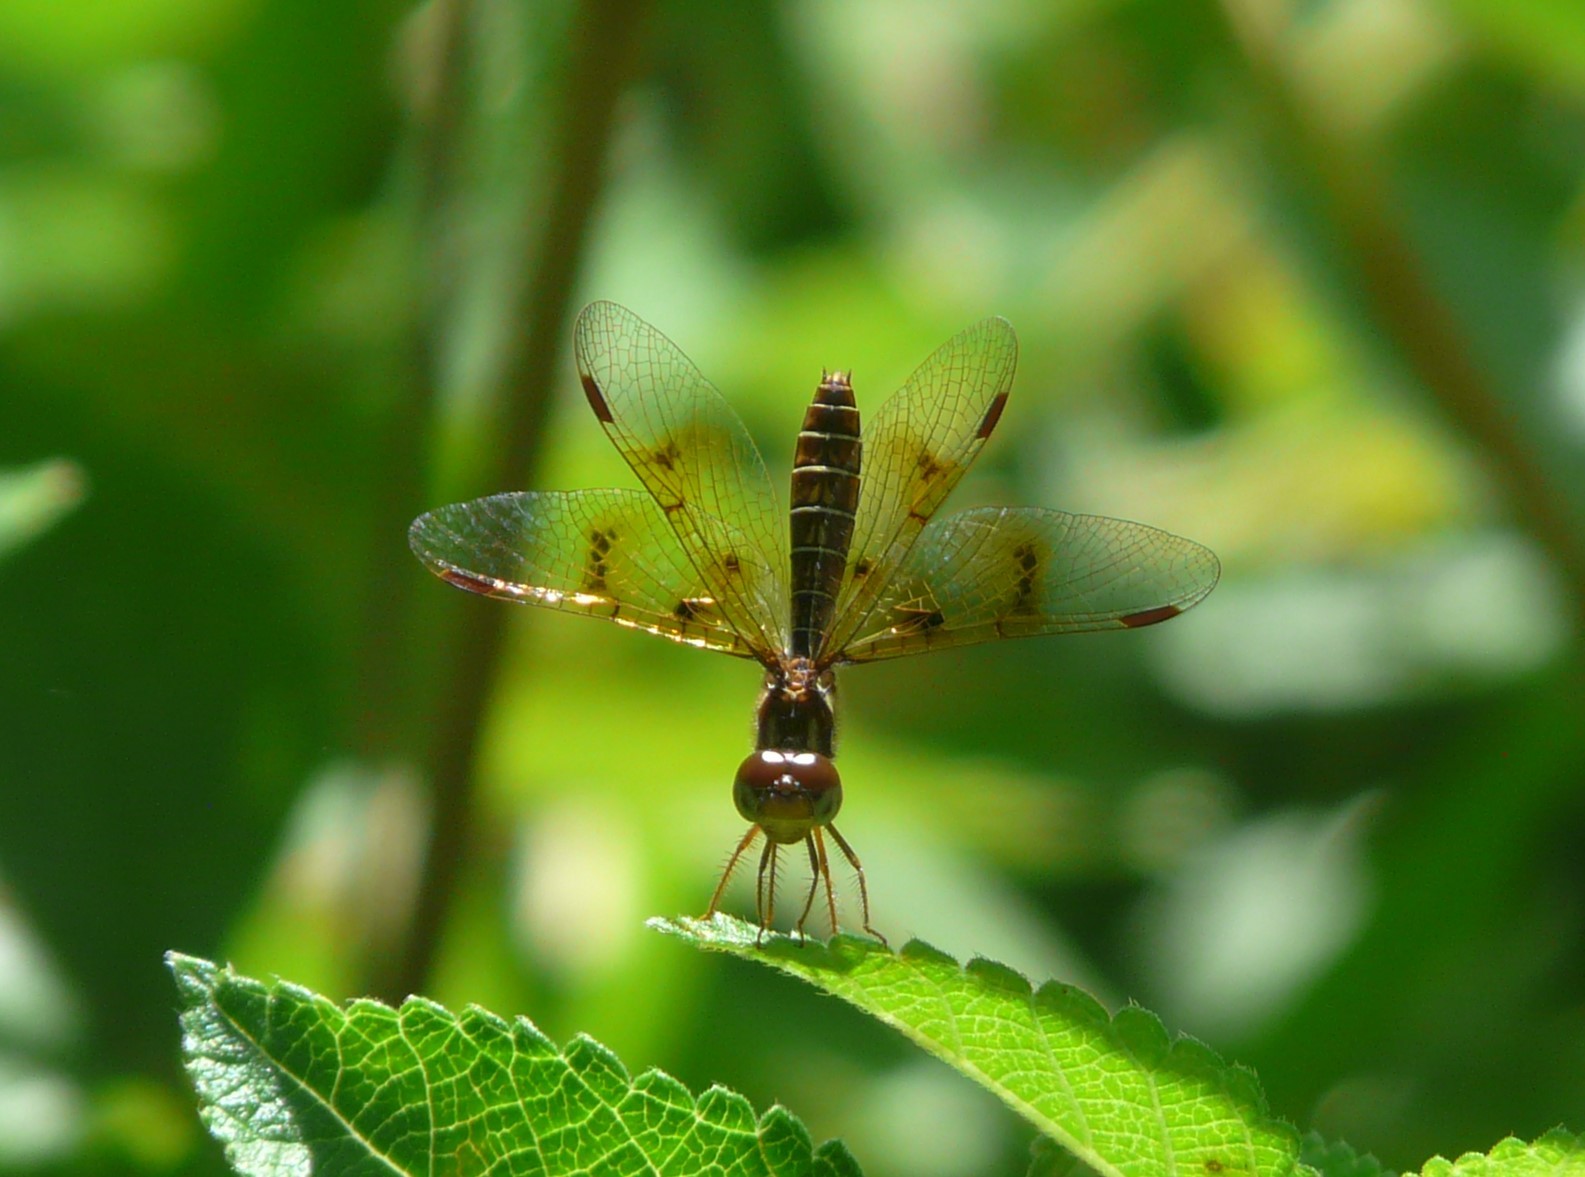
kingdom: Animalia
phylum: Arthropoda
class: Insecta
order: Odonata
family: Libellulidae
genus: Perithemis
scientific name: Perithemis tenera
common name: Eastern amberwing
